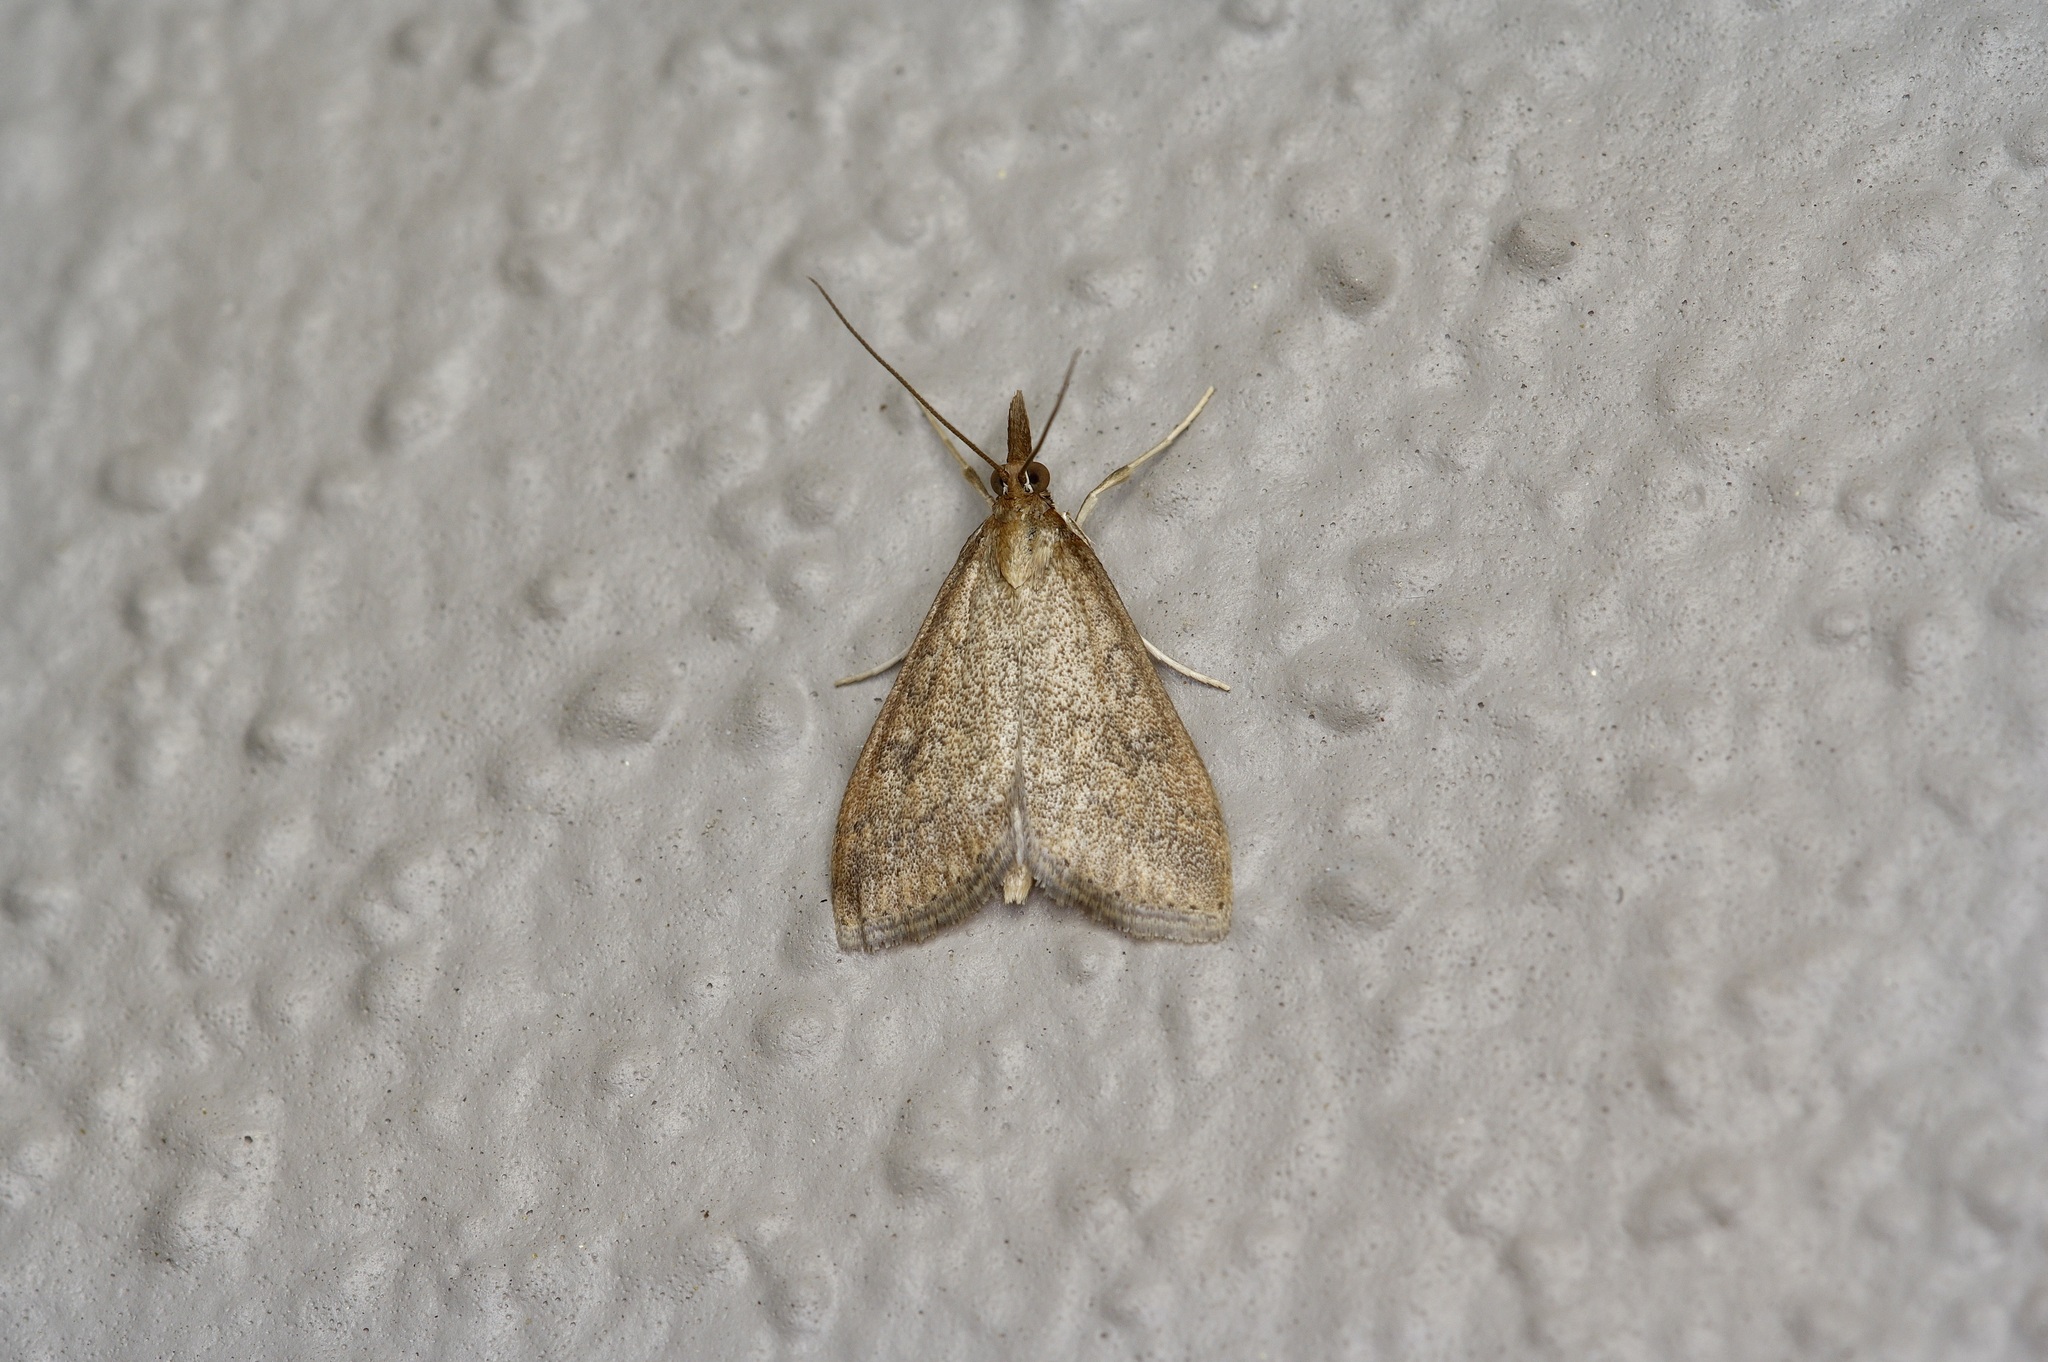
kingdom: Animalia
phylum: Arthropoda
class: Insecta
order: Lepidoptera
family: Crambidae
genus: Udea
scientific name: Udea rubigalis
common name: Celery leaftier moth
